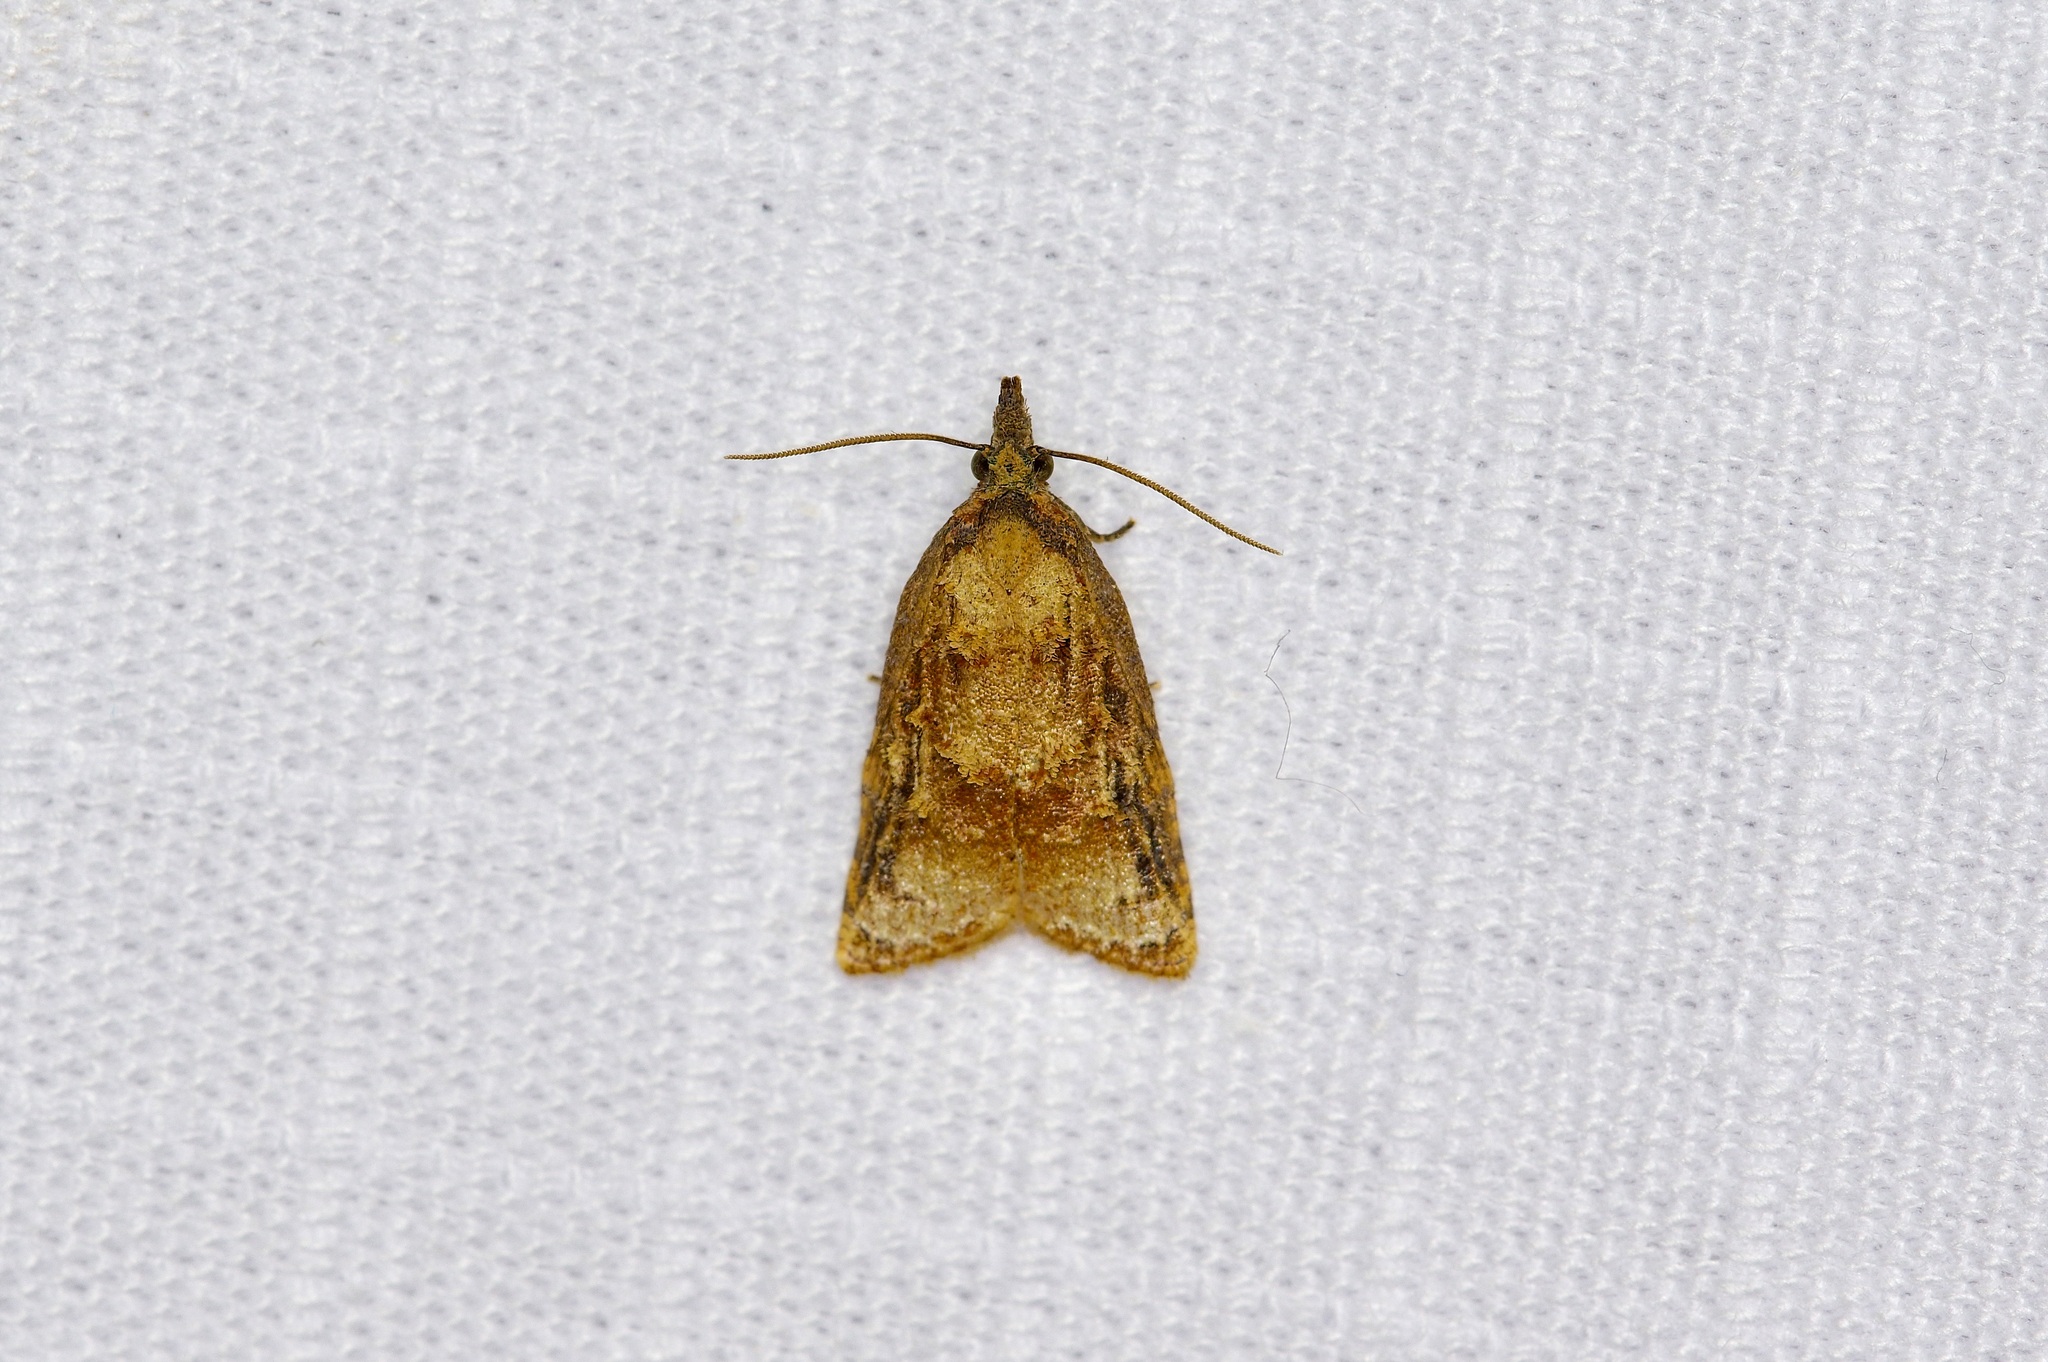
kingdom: Animalia
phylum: Arthropoda
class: Insecta
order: Lepidoptera
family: Tortricidae
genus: Platynota
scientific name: Platynota rostrana
